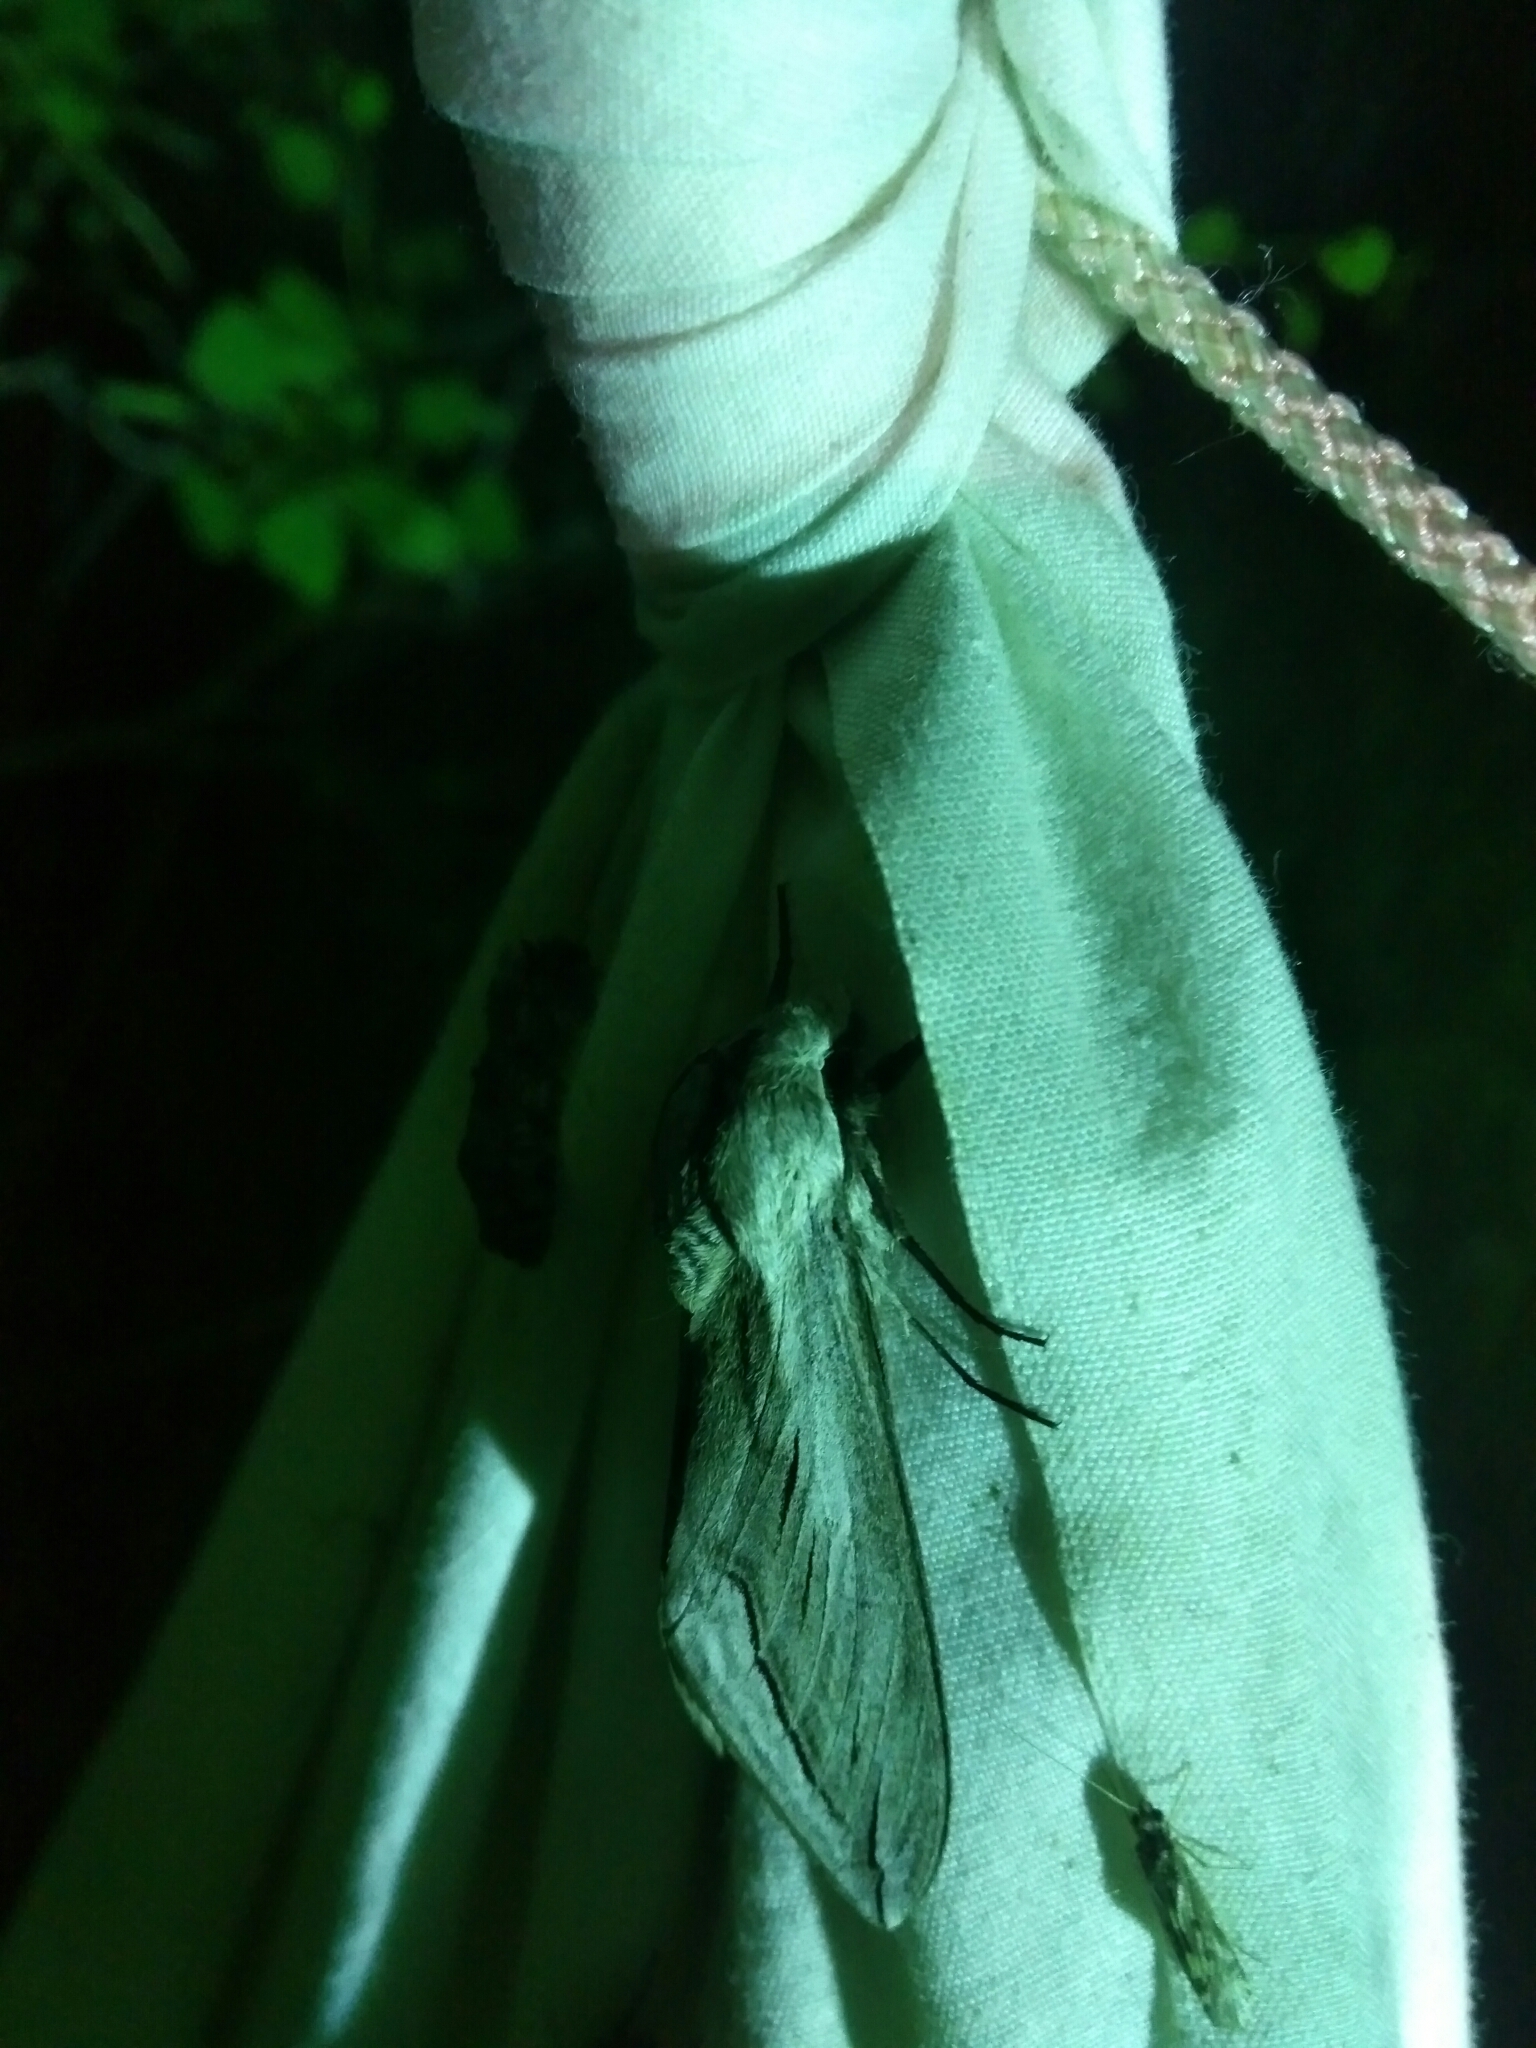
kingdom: Animalia
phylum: Arthropoda
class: Insecta
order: Lepidoptera
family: Sphingidae
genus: Sphinx
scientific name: Sphinx vashti
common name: Snowberry sphinx
